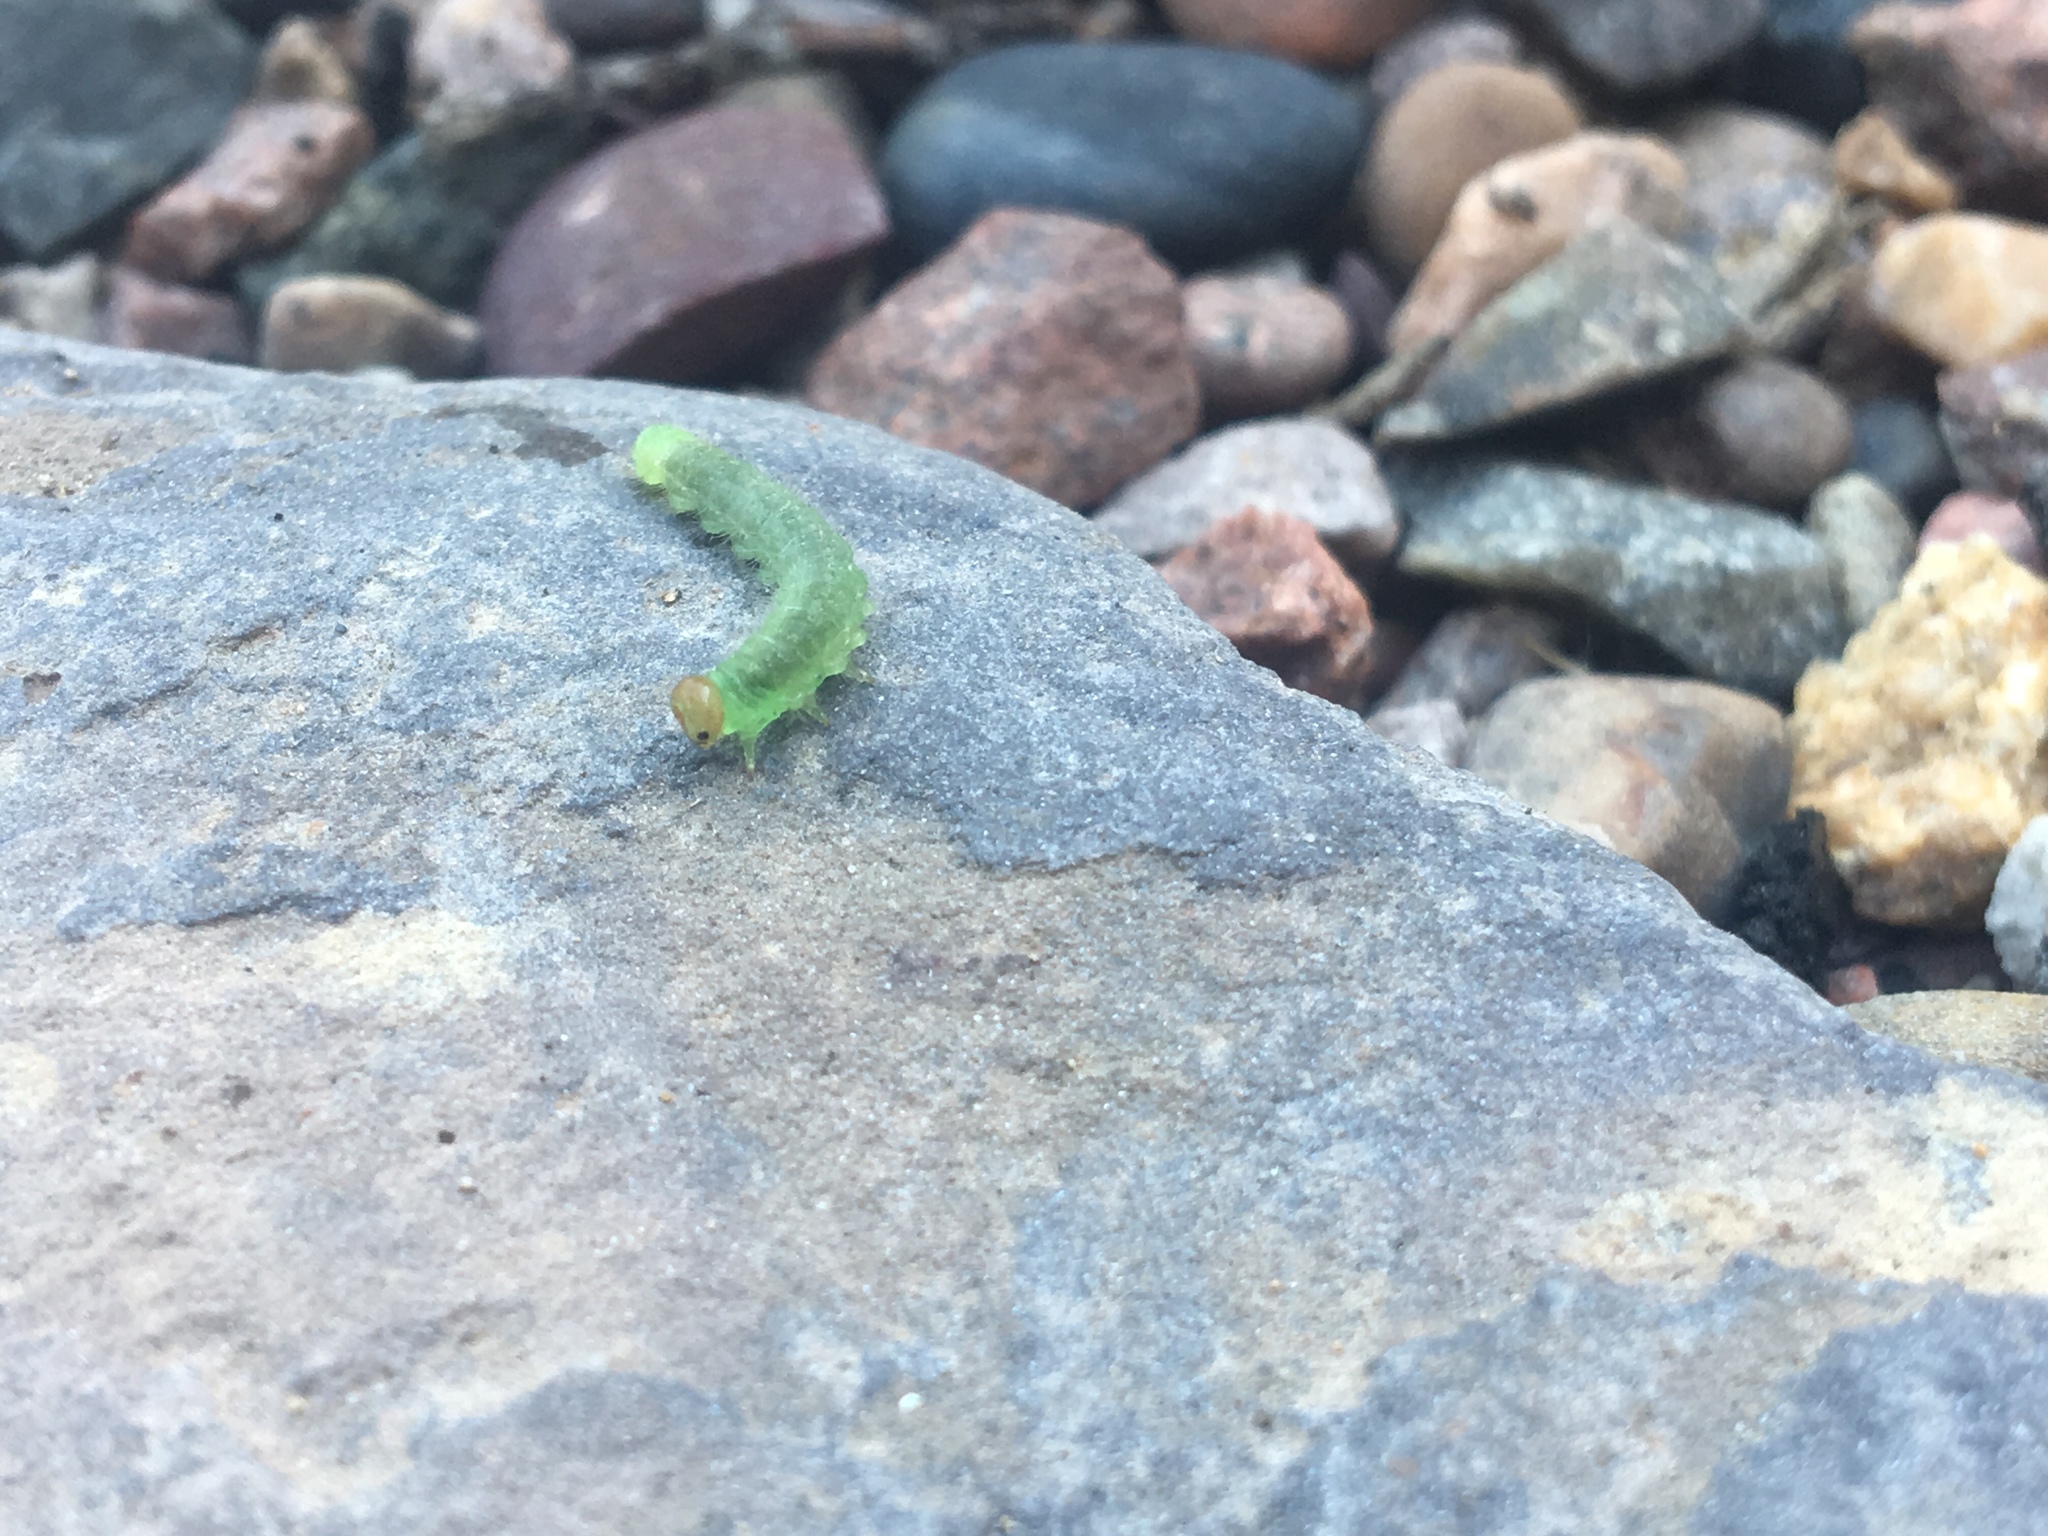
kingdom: Animalia
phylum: Arthropoda
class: Insecta
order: Hymenoptera
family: Tenthredinidae
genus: Cladius
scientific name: Cladius pectinicornis
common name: Sawfly
